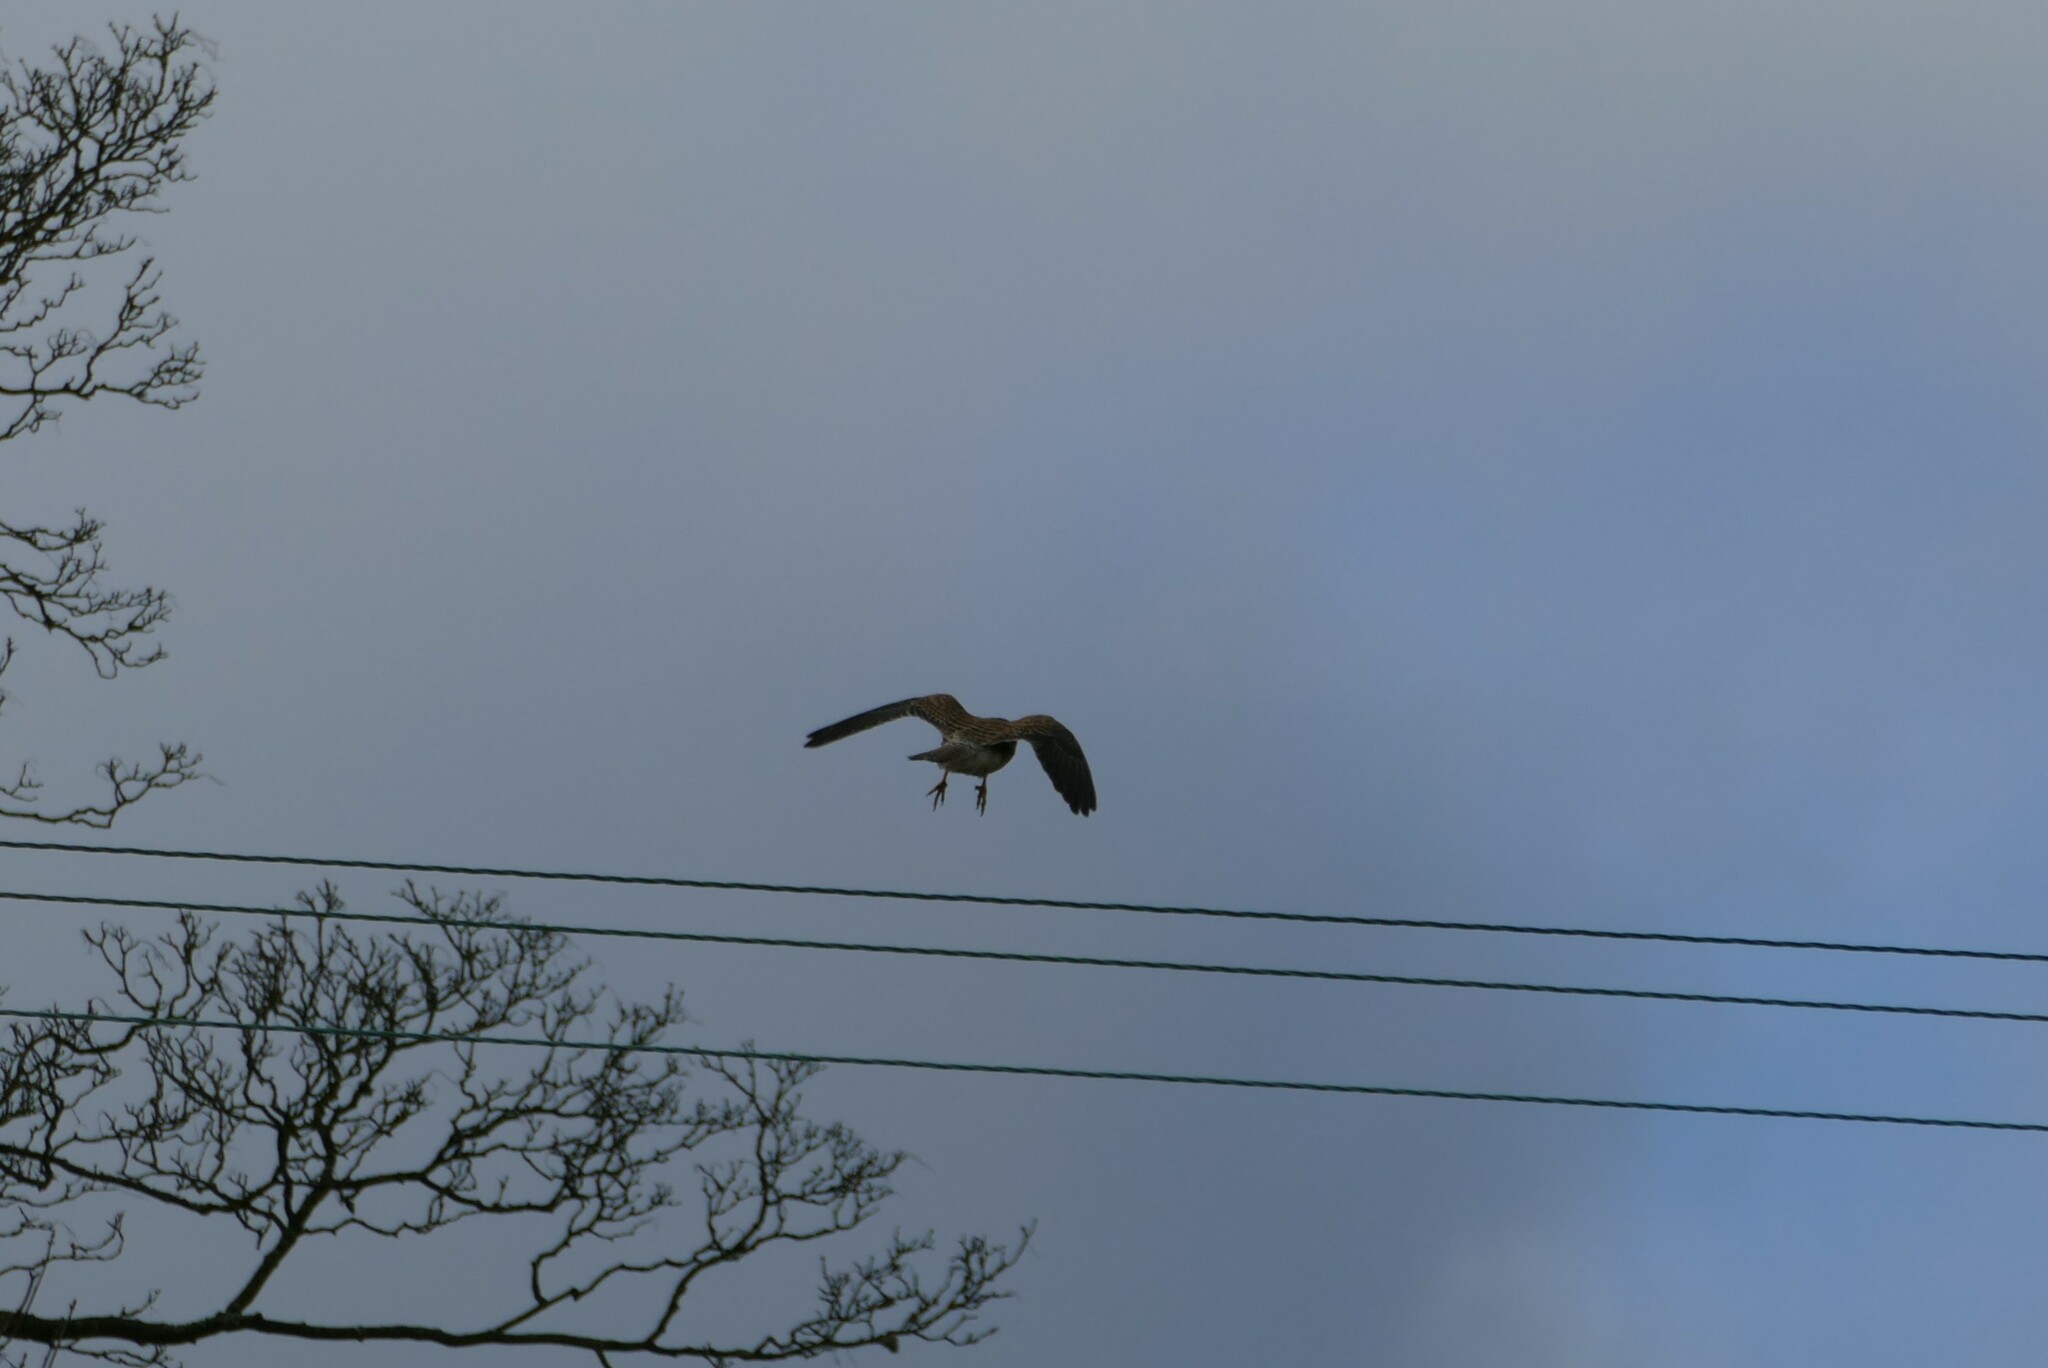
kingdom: Animalia
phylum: Chordata
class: Aves
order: Falconiformes
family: Falconidae
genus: Falco
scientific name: Falco tinnunculus
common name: Common kestrel
